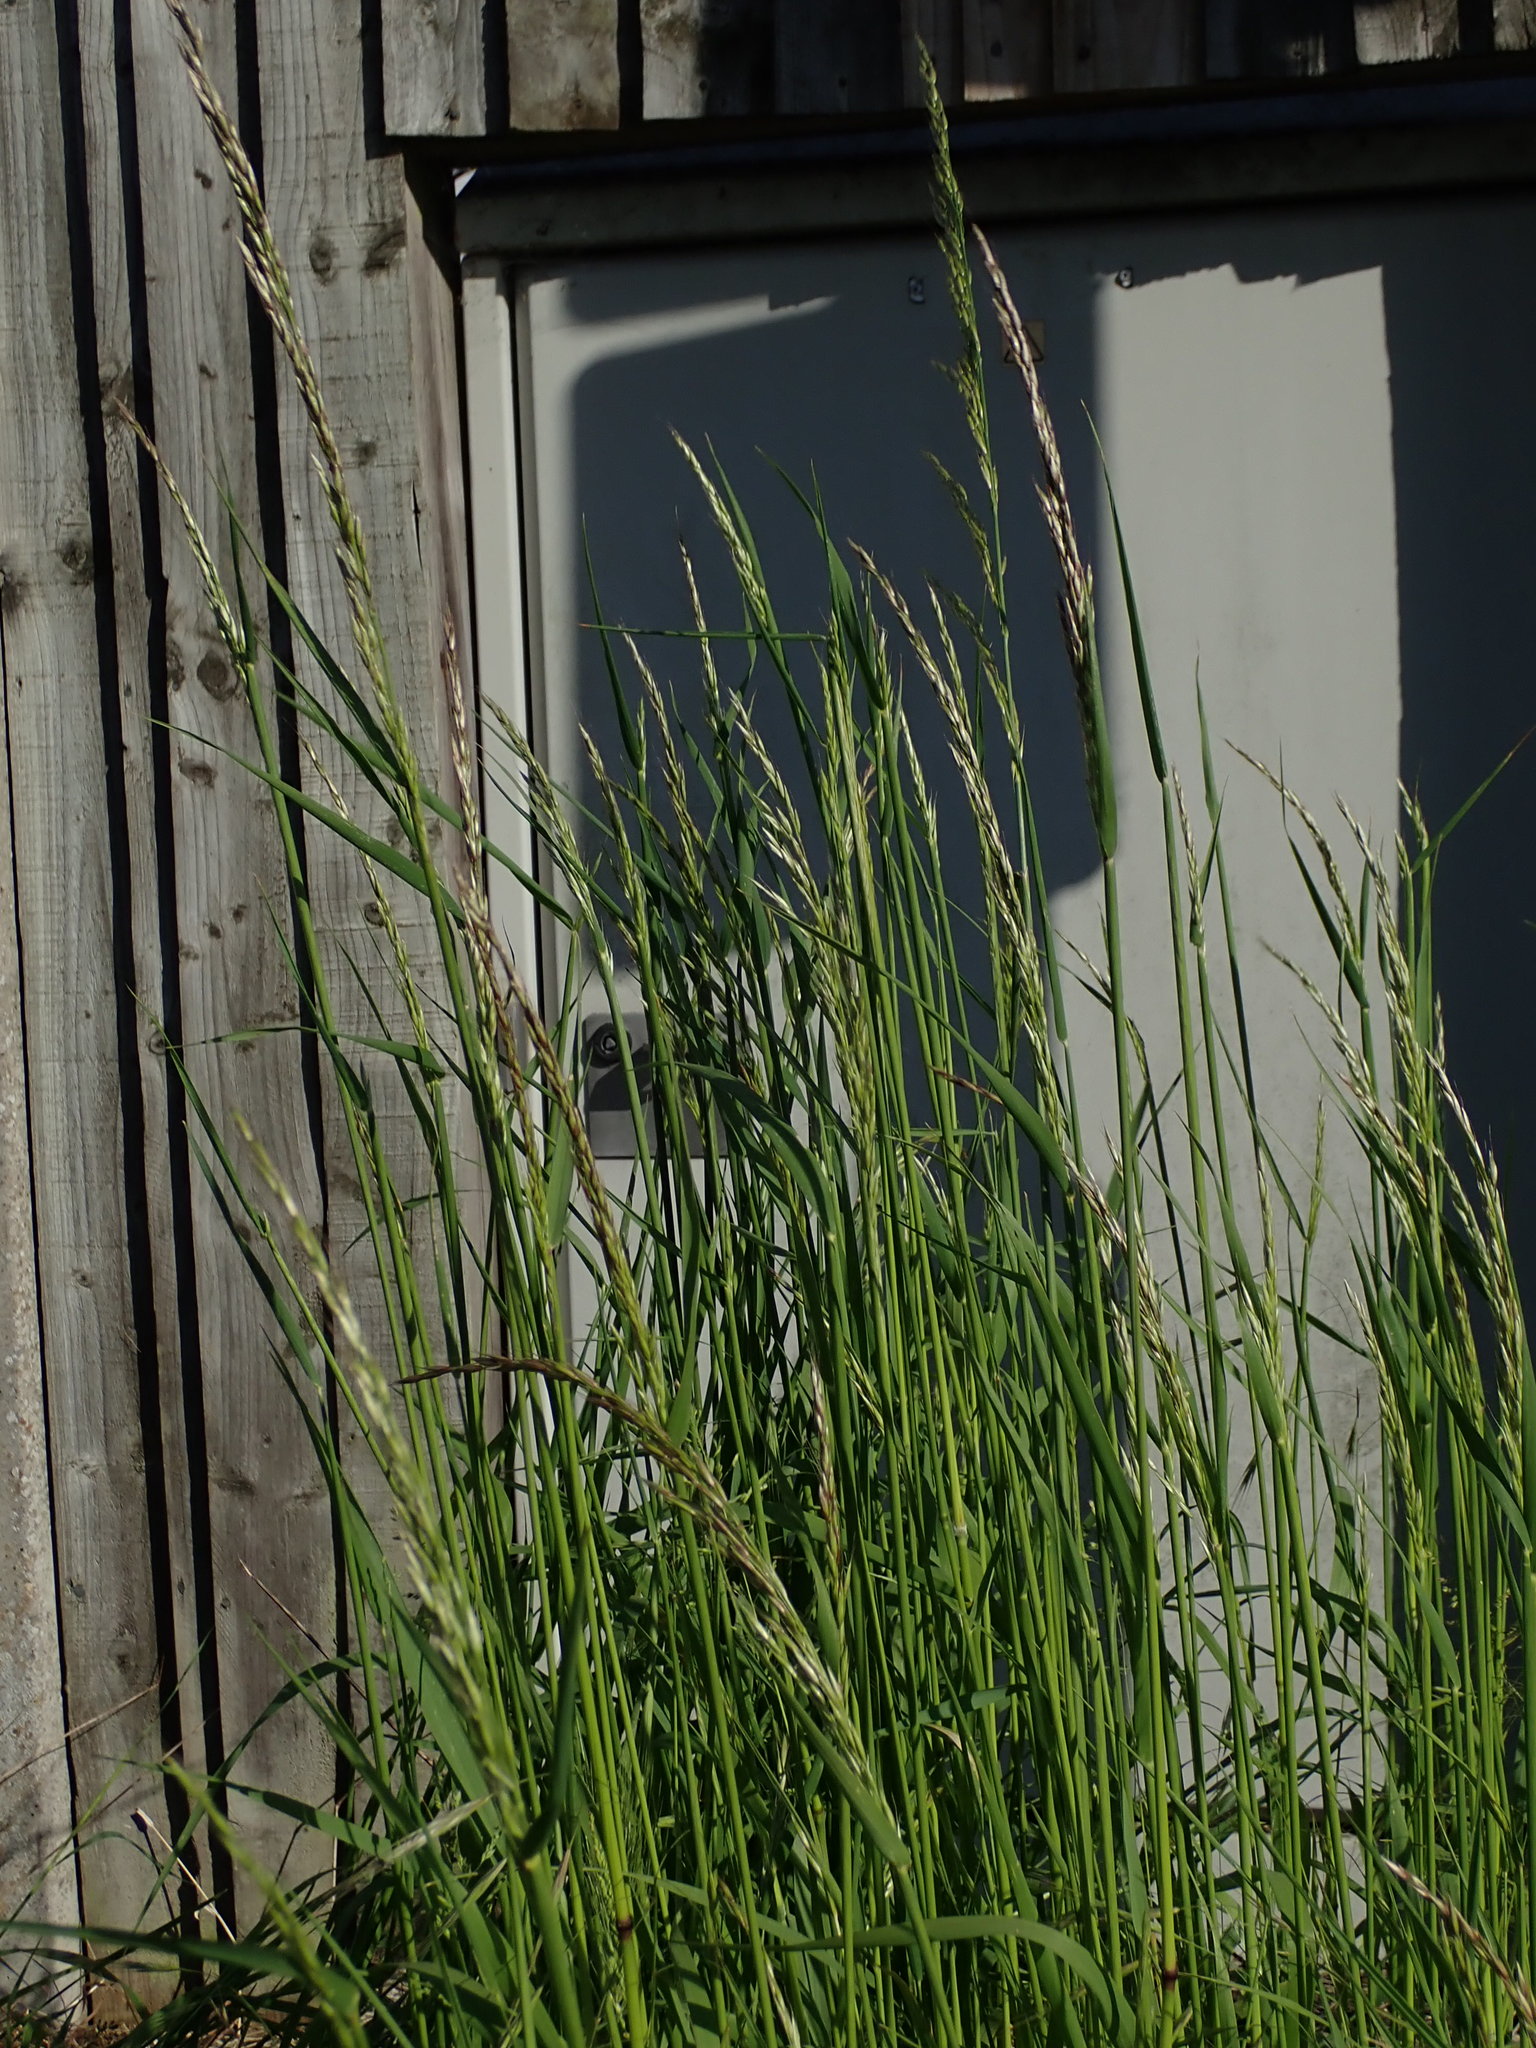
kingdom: Plantae
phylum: Tracheophyta
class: Liliopsida
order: Poales
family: Poaceae
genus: Arrhenatherum
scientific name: Arrhenatherum elatius
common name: Tall oatgrass
